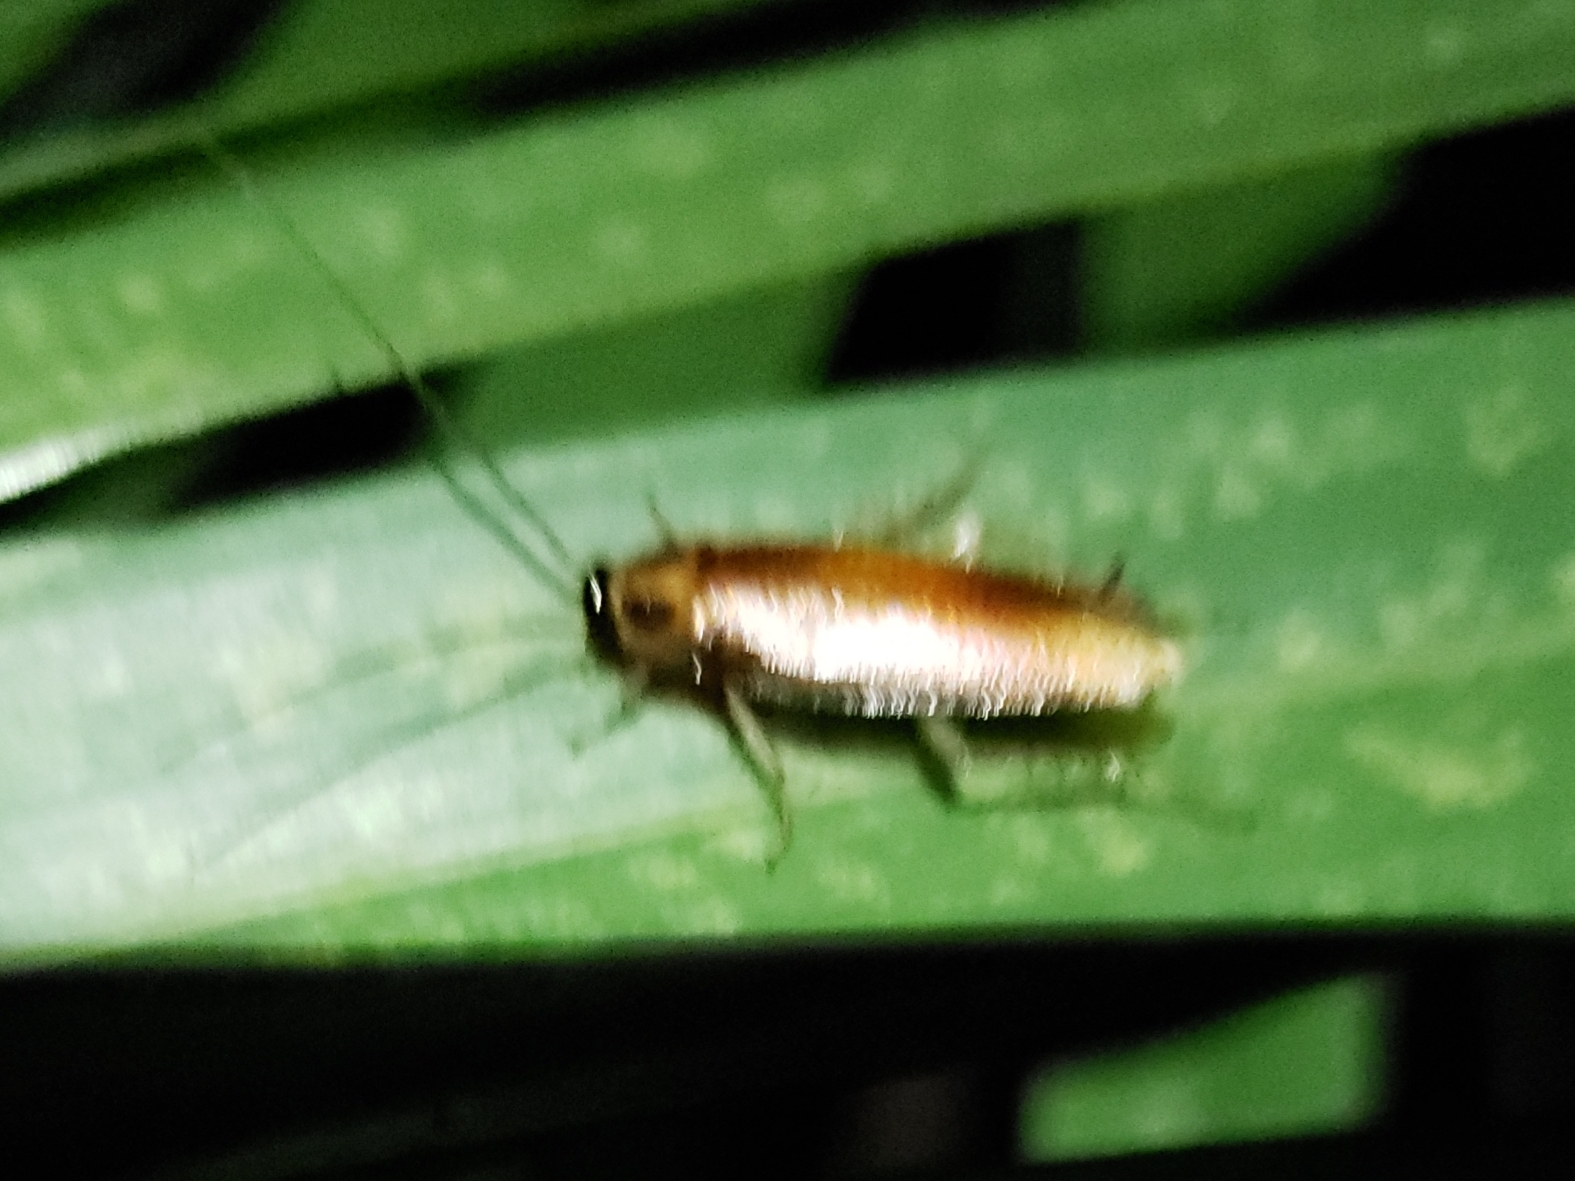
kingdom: Animalia
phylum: Arthropoda
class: Insecta
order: Blattodea
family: Ectobiidae
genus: Ischnoptera
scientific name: Ischnoptera bilunata
